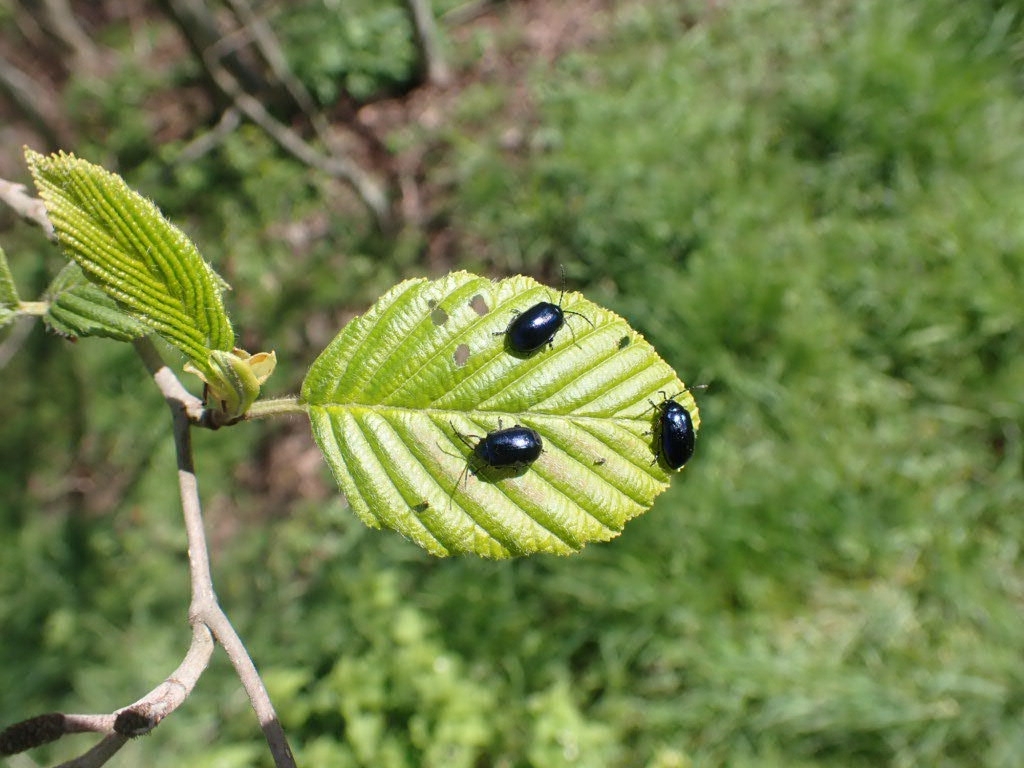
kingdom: Animalia
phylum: Arthropoda
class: Insecta
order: Coleoptera
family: Chrysomelidae
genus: Agelastica
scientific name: Agelastica alni
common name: Alder leaf beetle
